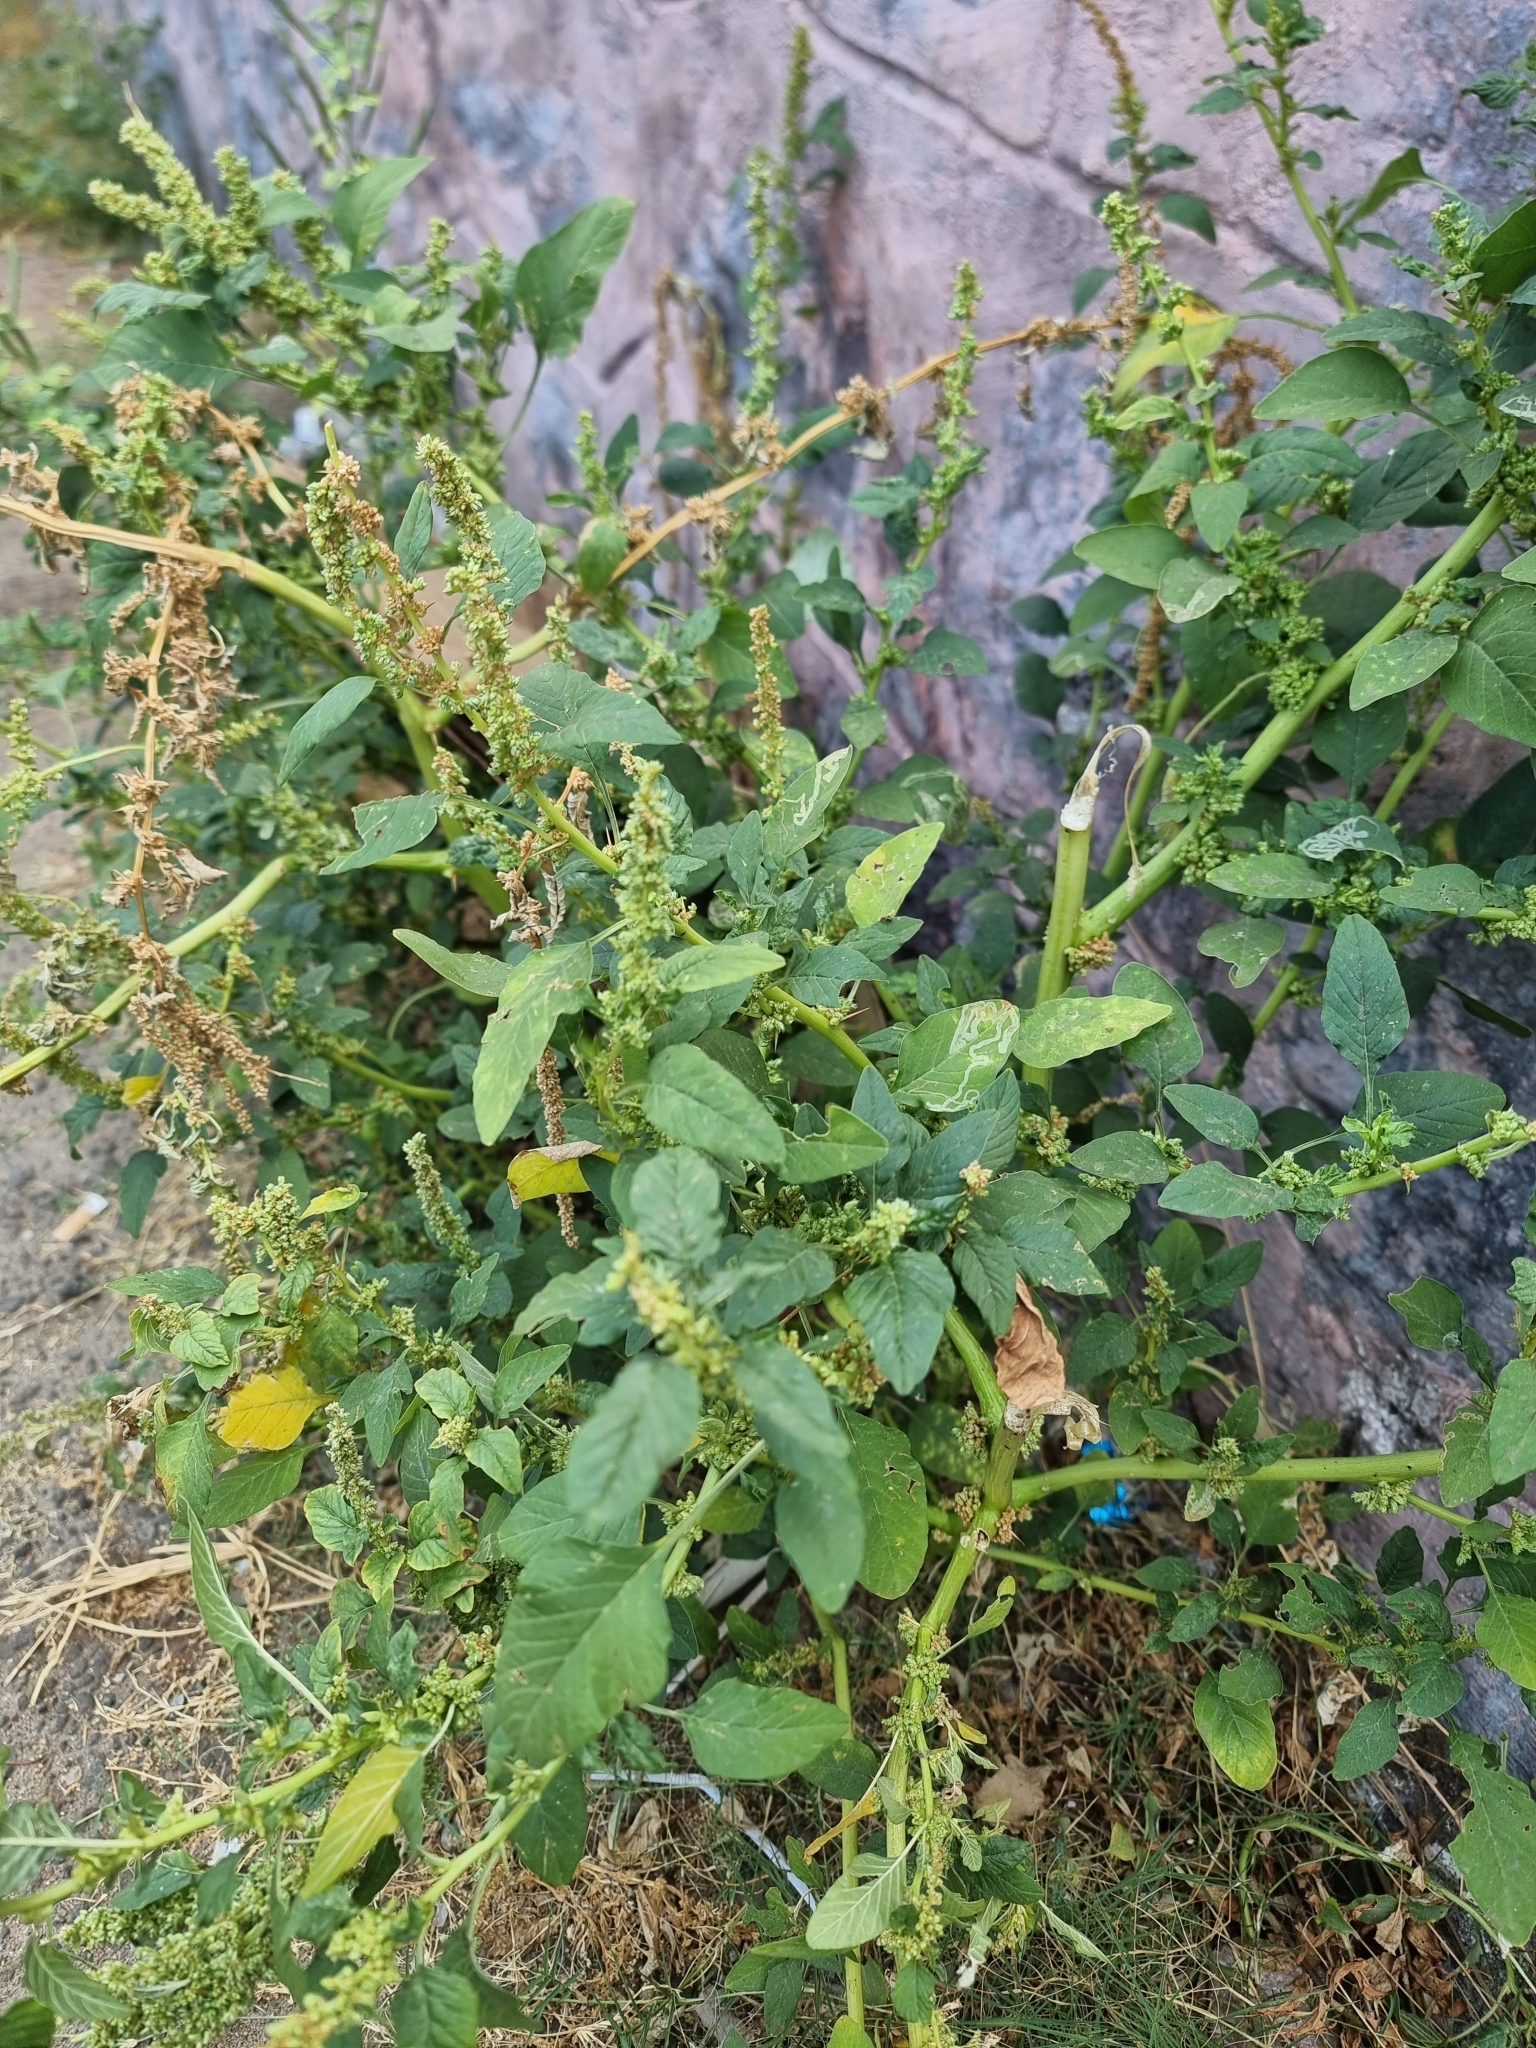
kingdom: Plantae
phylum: Tracheophyta
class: Magnoliopsida
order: Caryophyllales
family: Amaranthaceae
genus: Amaranthus
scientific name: Amaranthus spinosus
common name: Spiny amaranth
